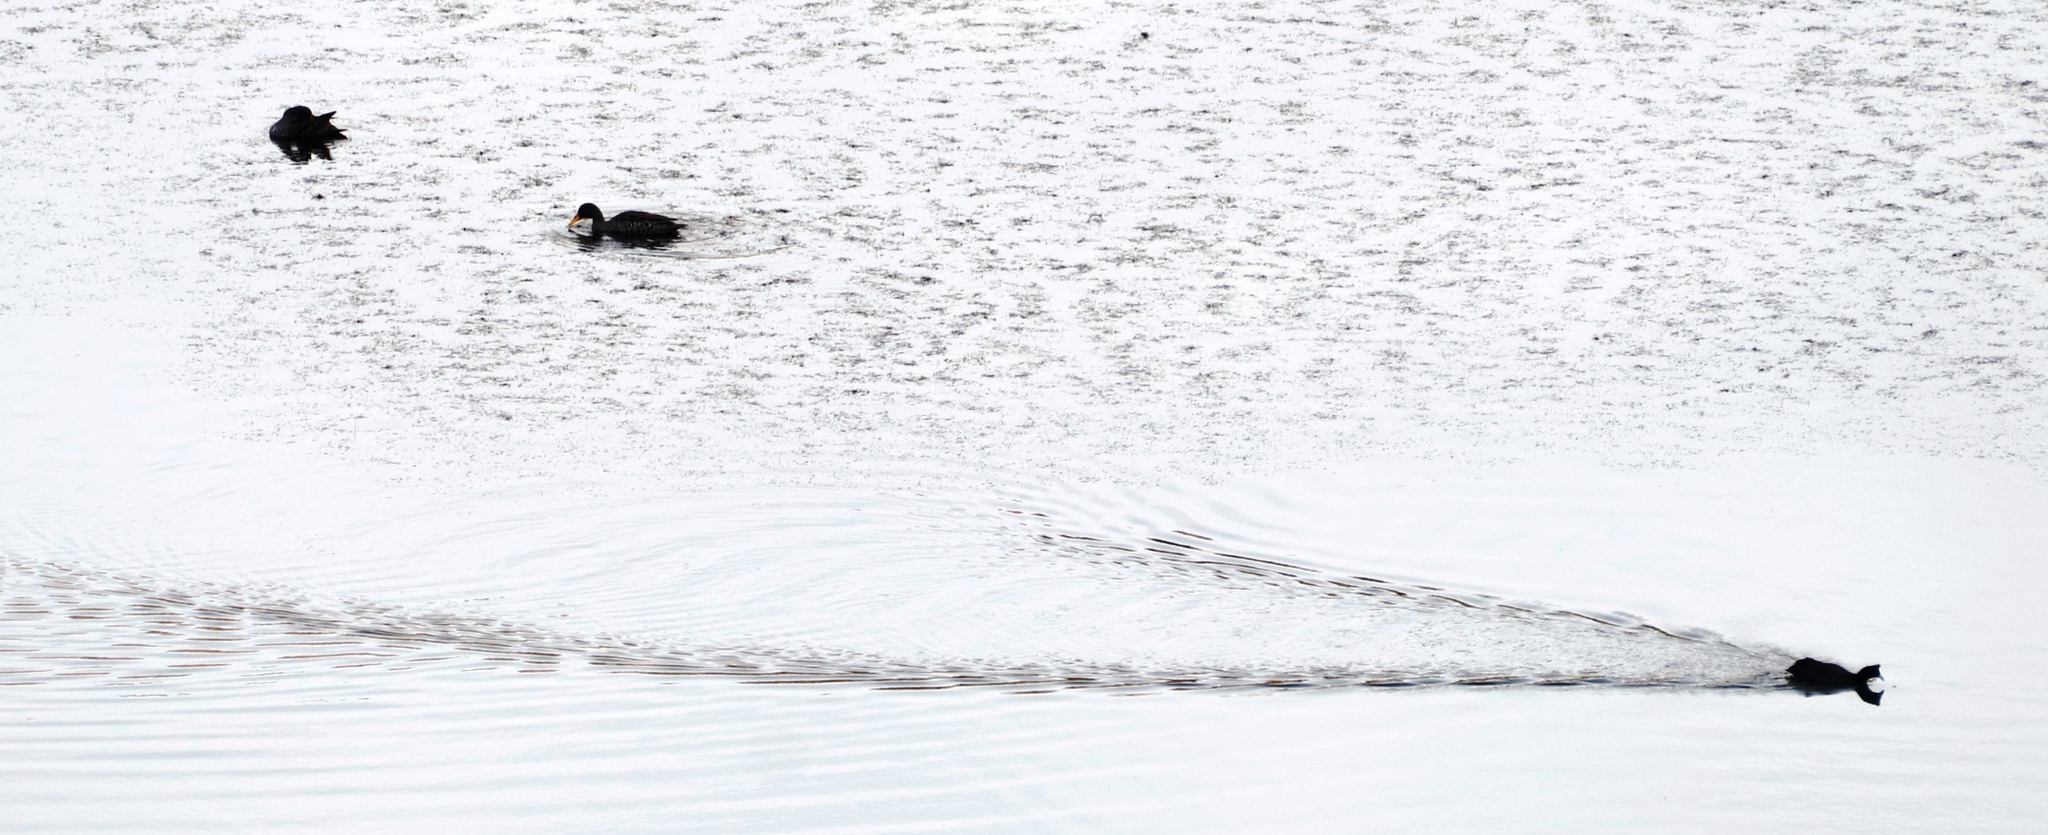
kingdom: Animalia
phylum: Chordata
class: Aves
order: Gruiformes
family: Rallidae
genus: Fulica
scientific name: Fulica cristata
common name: Red-knobbed coot
